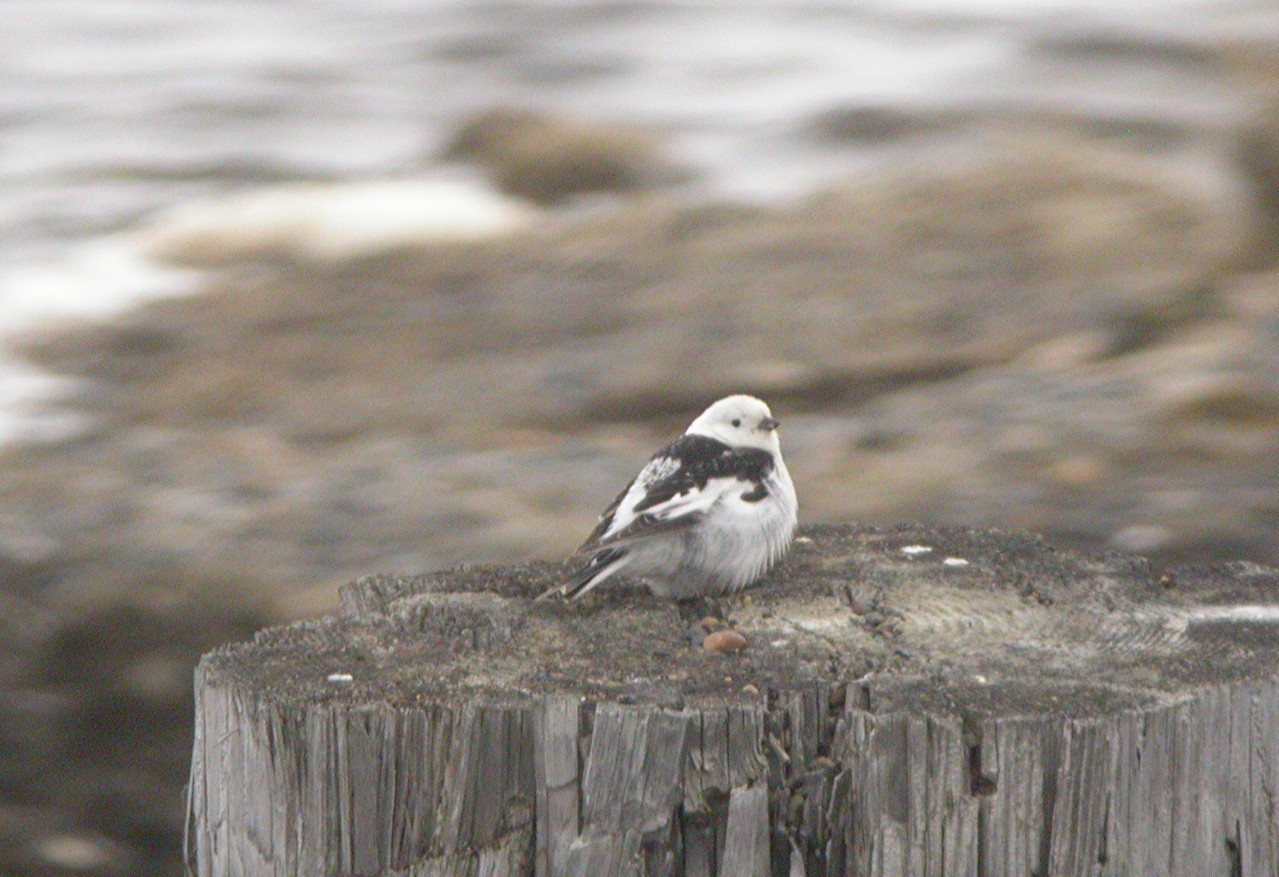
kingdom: Animalia
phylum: Chordata
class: Aves
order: Passeriformes
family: Calcariidae
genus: Plectrophenax
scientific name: Plectrophenax nivalis
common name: Snow bunting
